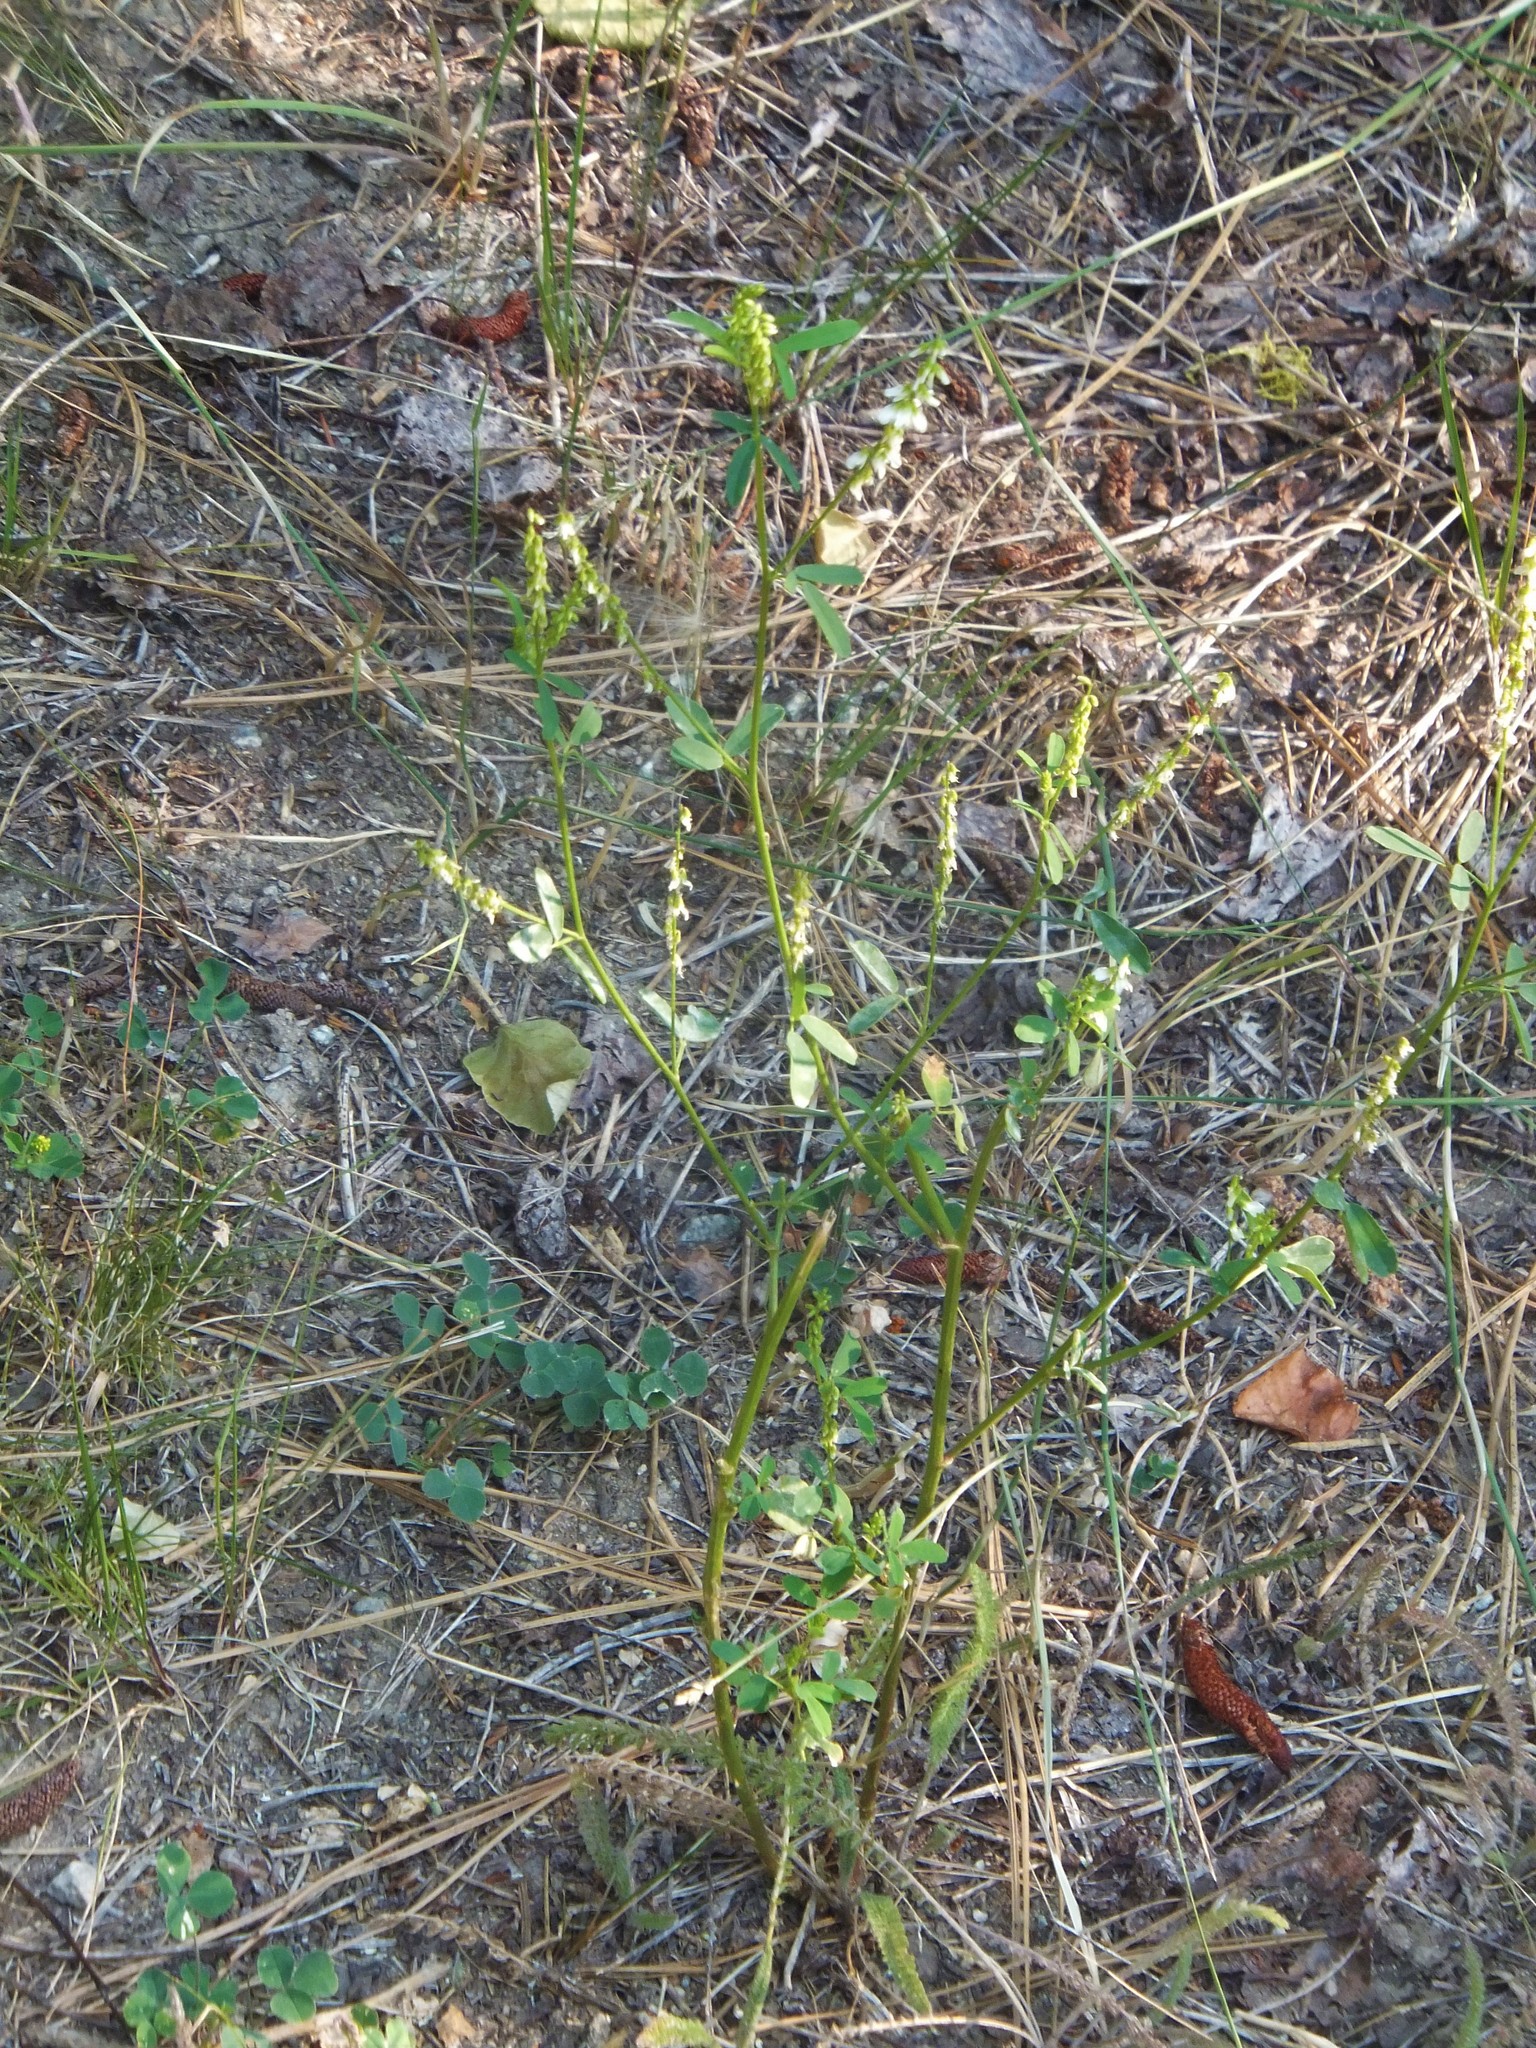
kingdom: Plantae
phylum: Tracheophyta
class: Magnoliopsida
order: Fabales
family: Fabaceae
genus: Melilotus
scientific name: Melilotus albus
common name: White melilot
